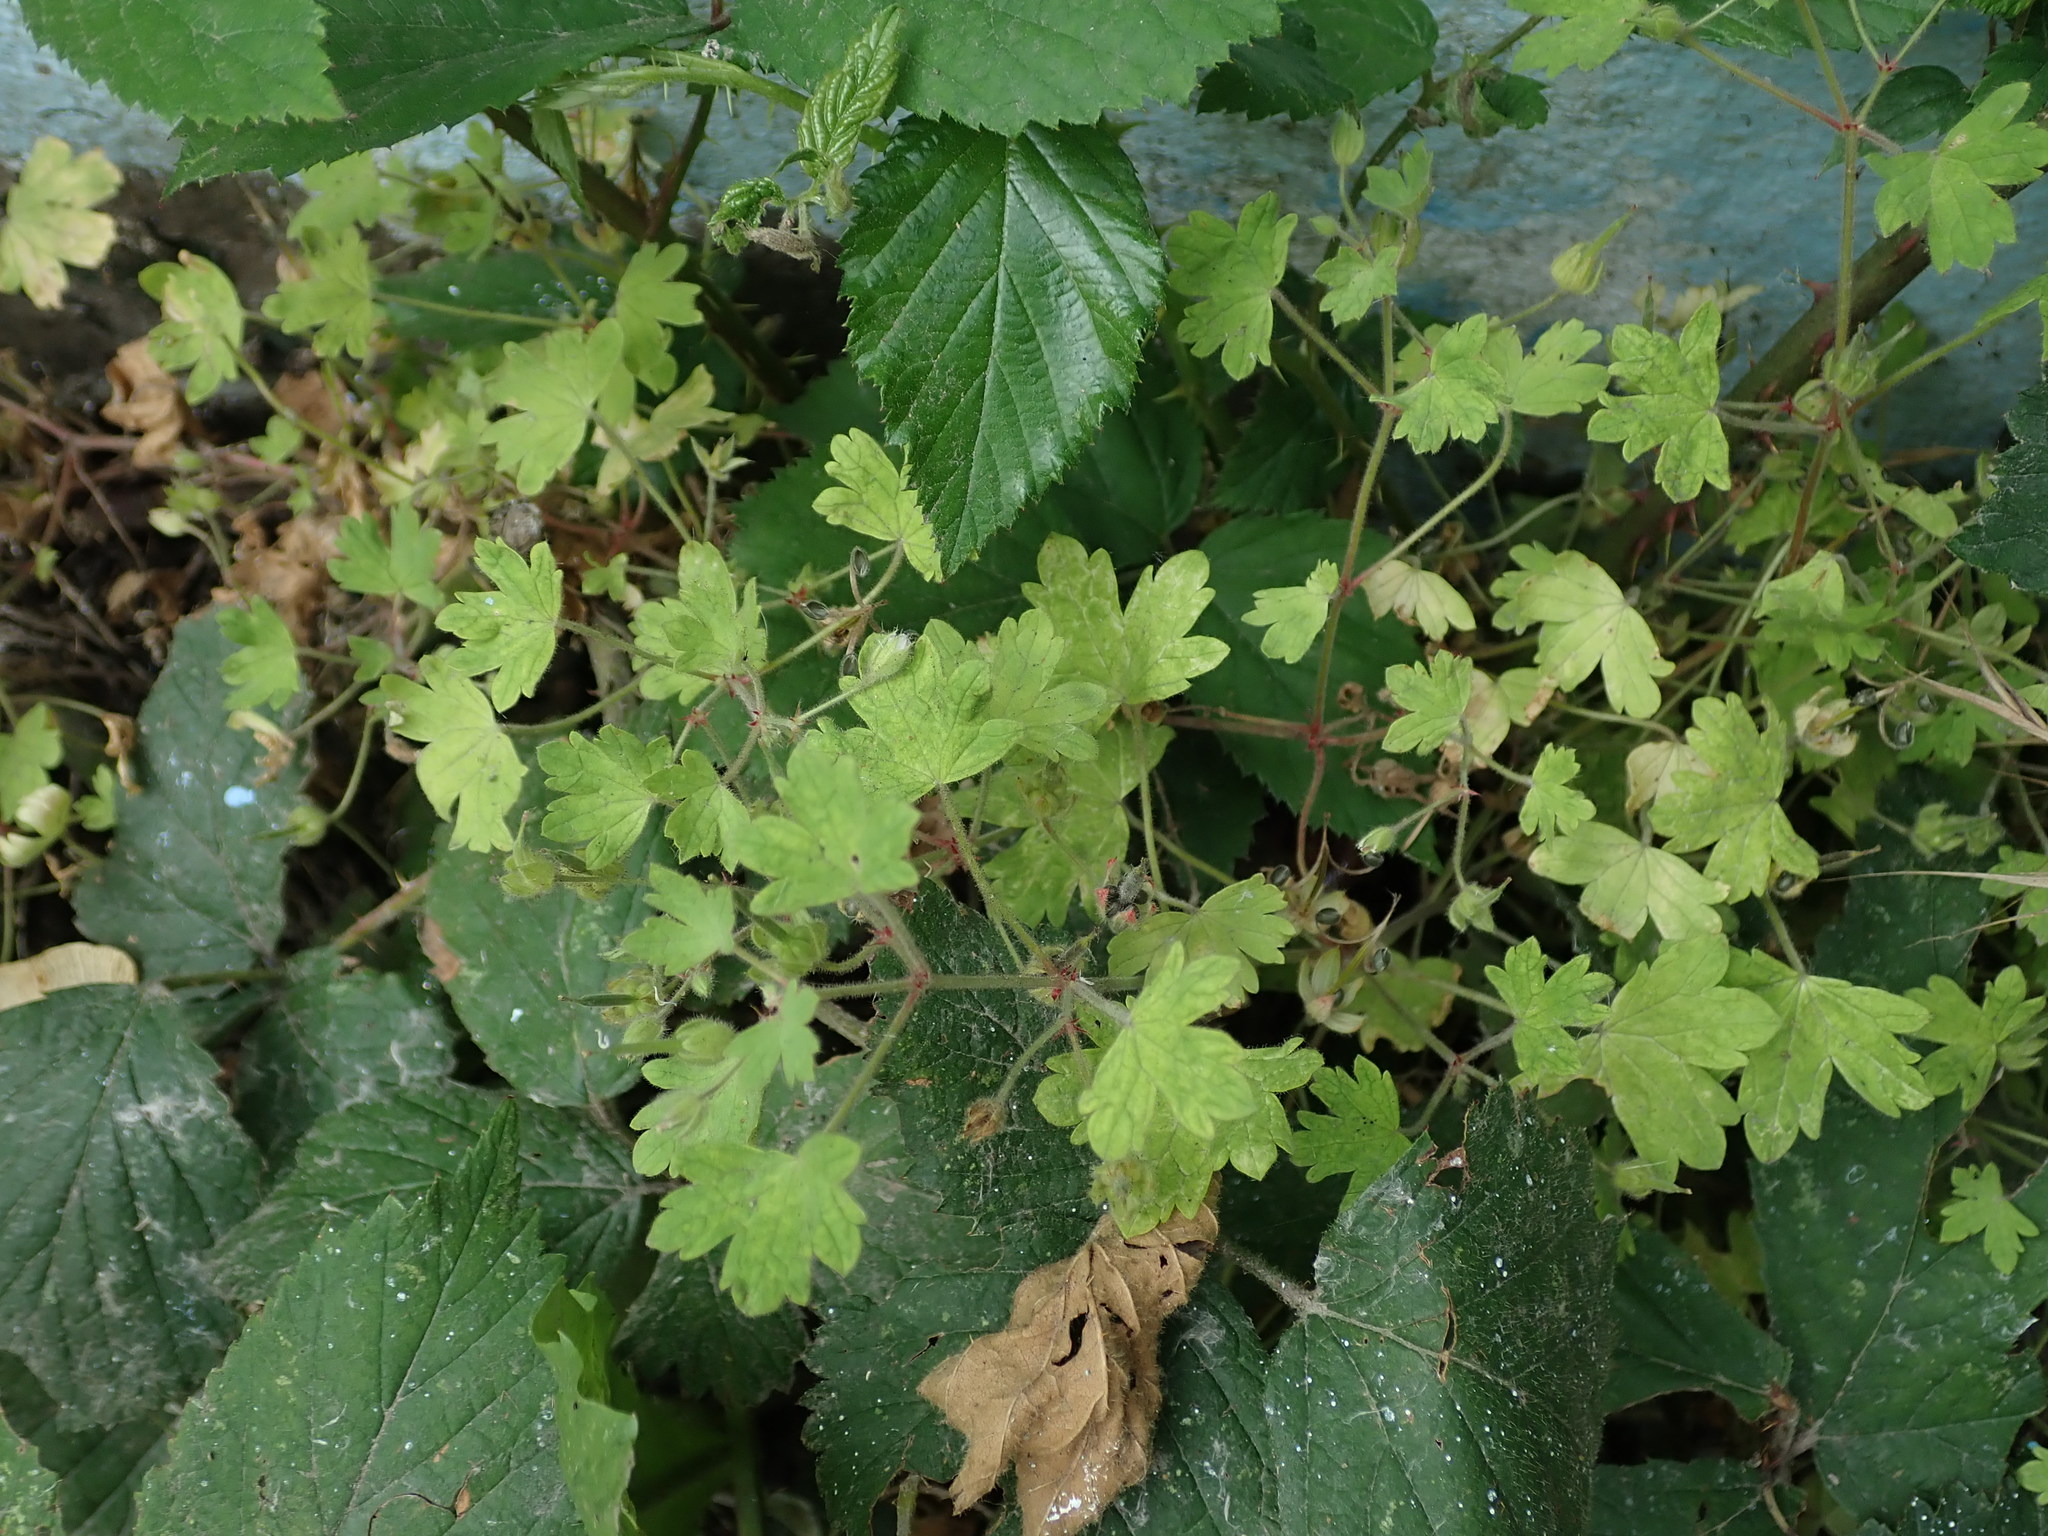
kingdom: Plantae
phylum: Tracheophyta
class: Magnoliopsida
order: Geraniales
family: Geraniaceae
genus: Geranium
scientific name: Geranium rotundifolium
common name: Round-leaved crane's-bill
